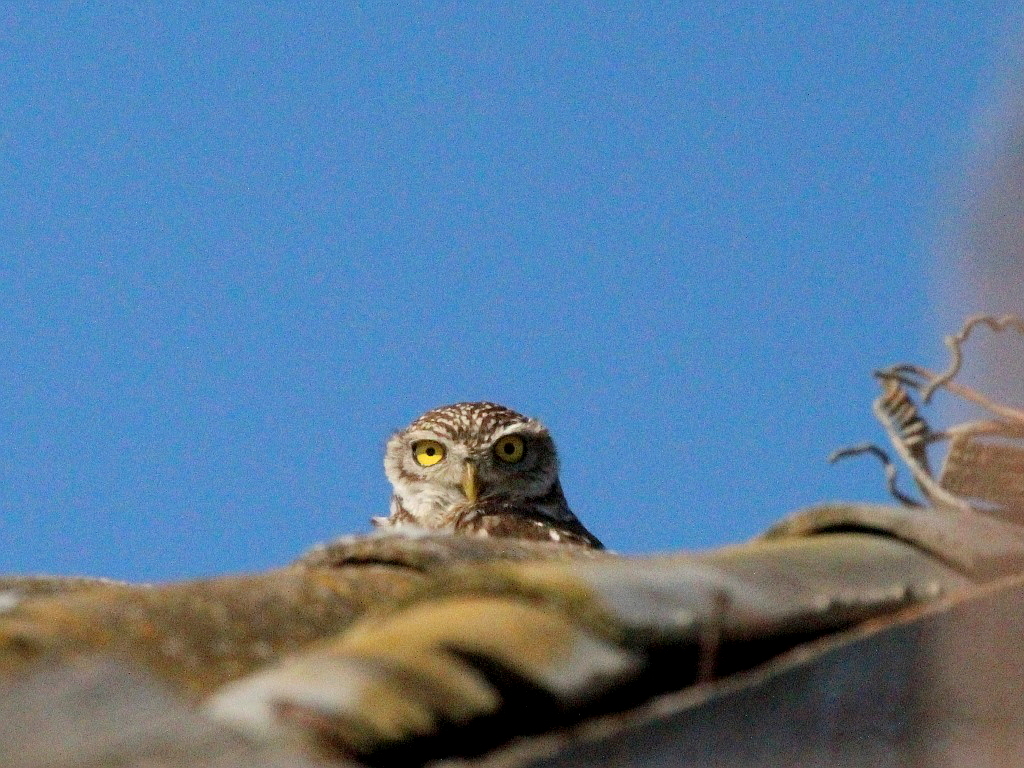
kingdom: Animalia
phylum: Chordata
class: Aves
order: Strigiformes
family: Strigidae
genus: Athene
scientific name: Athene noctua
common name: Little owl
